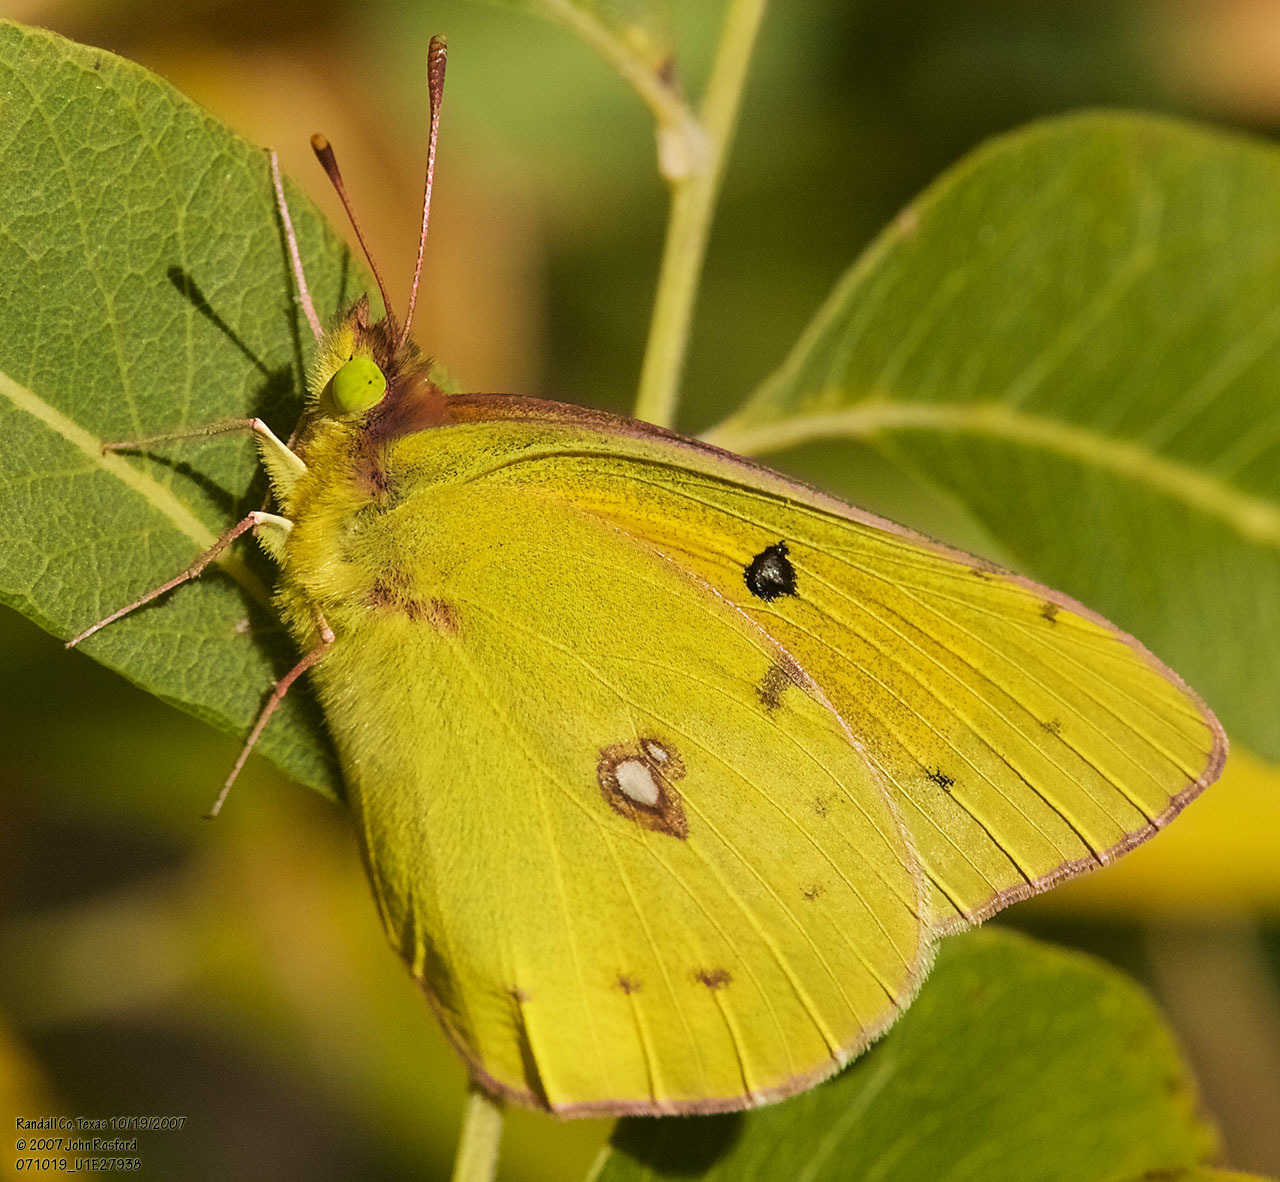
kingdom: Animalia
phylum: Arthropoda
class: Insecta
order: Lepidoptera
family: Pieridae
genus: Colias
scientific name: Colias eurytheme
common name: Alfalfa butterfly
